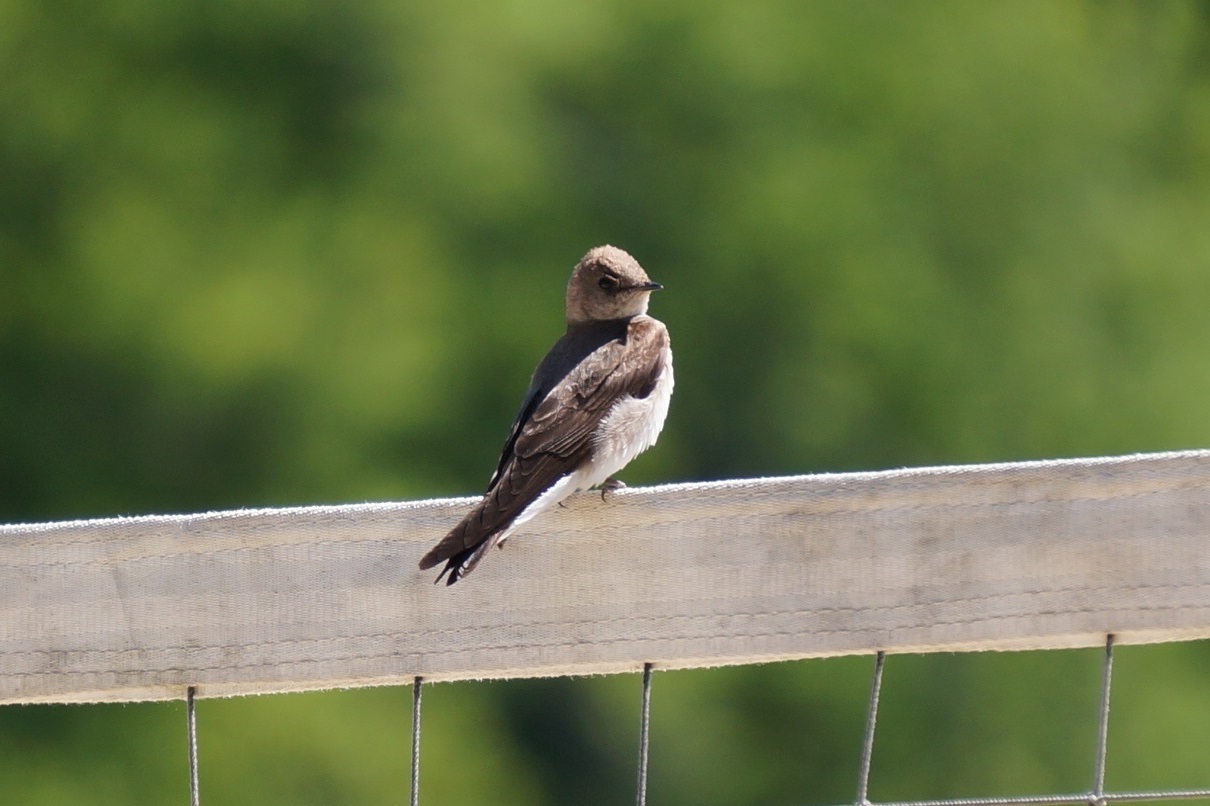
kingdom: Animalia
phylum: Chordata
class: Aves
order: Passeriformes
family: Hirundinidae
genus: Stelgidopteryx
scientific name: Stelgidopteryx serripennis
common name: Northern rough-winged swallow
